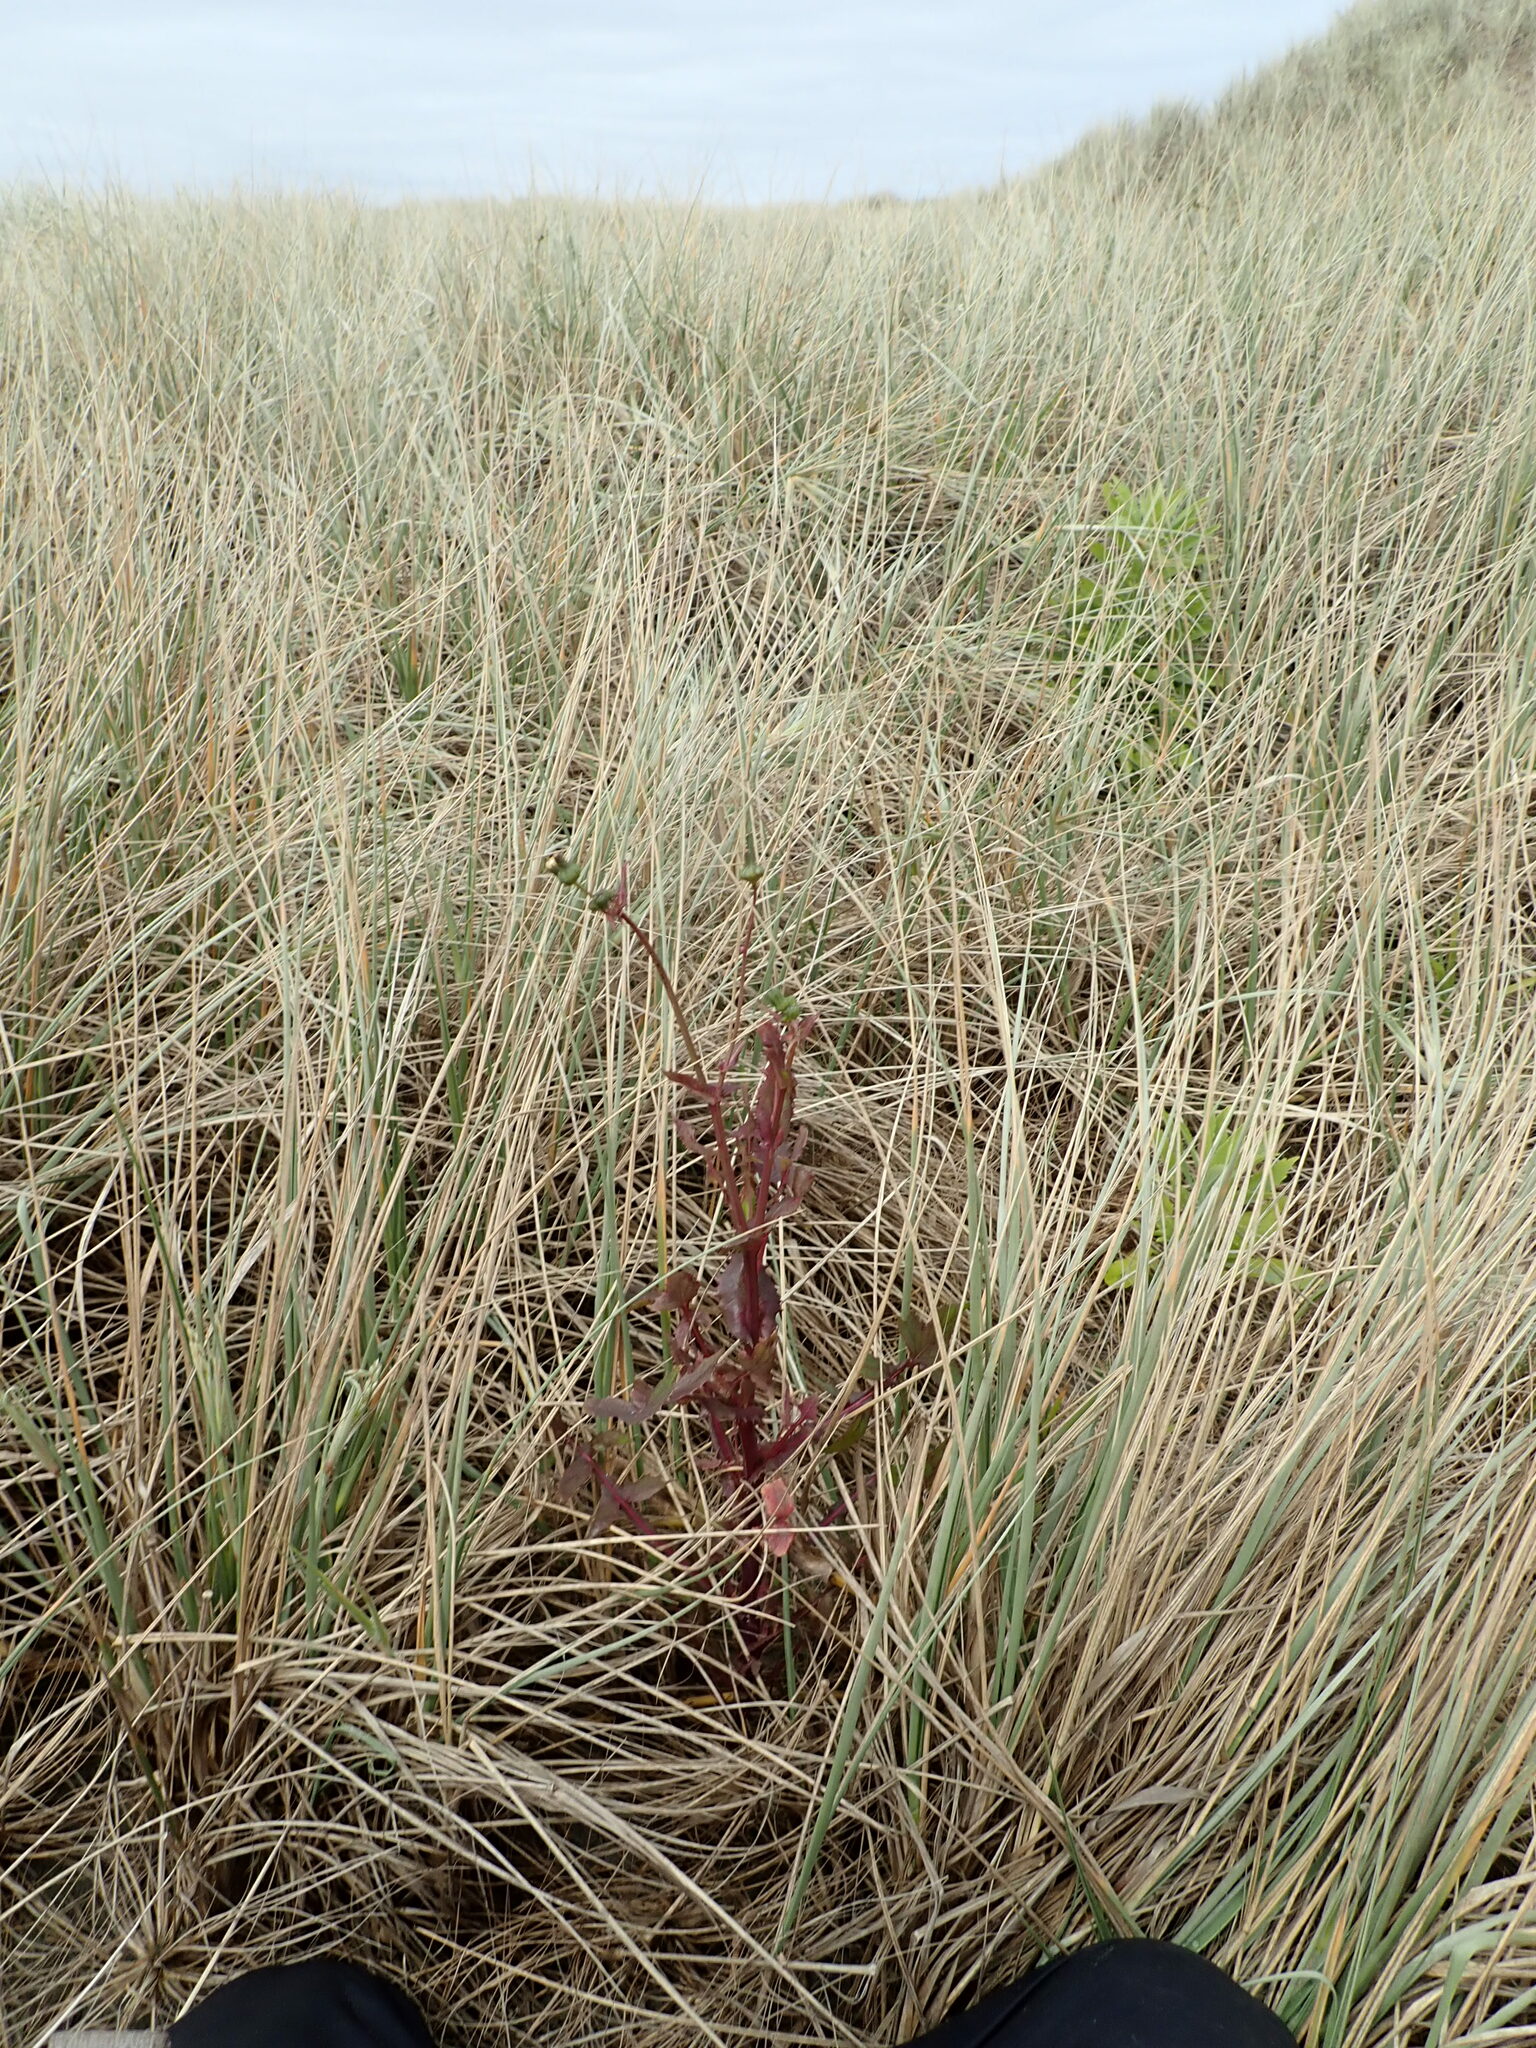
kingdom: Plantae
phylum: Tracheophyta
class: Magnoliopsida
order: Asterales
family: Asteraceae
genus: Erigeron
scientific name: Erigeron sumatrensis
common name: Daisy
